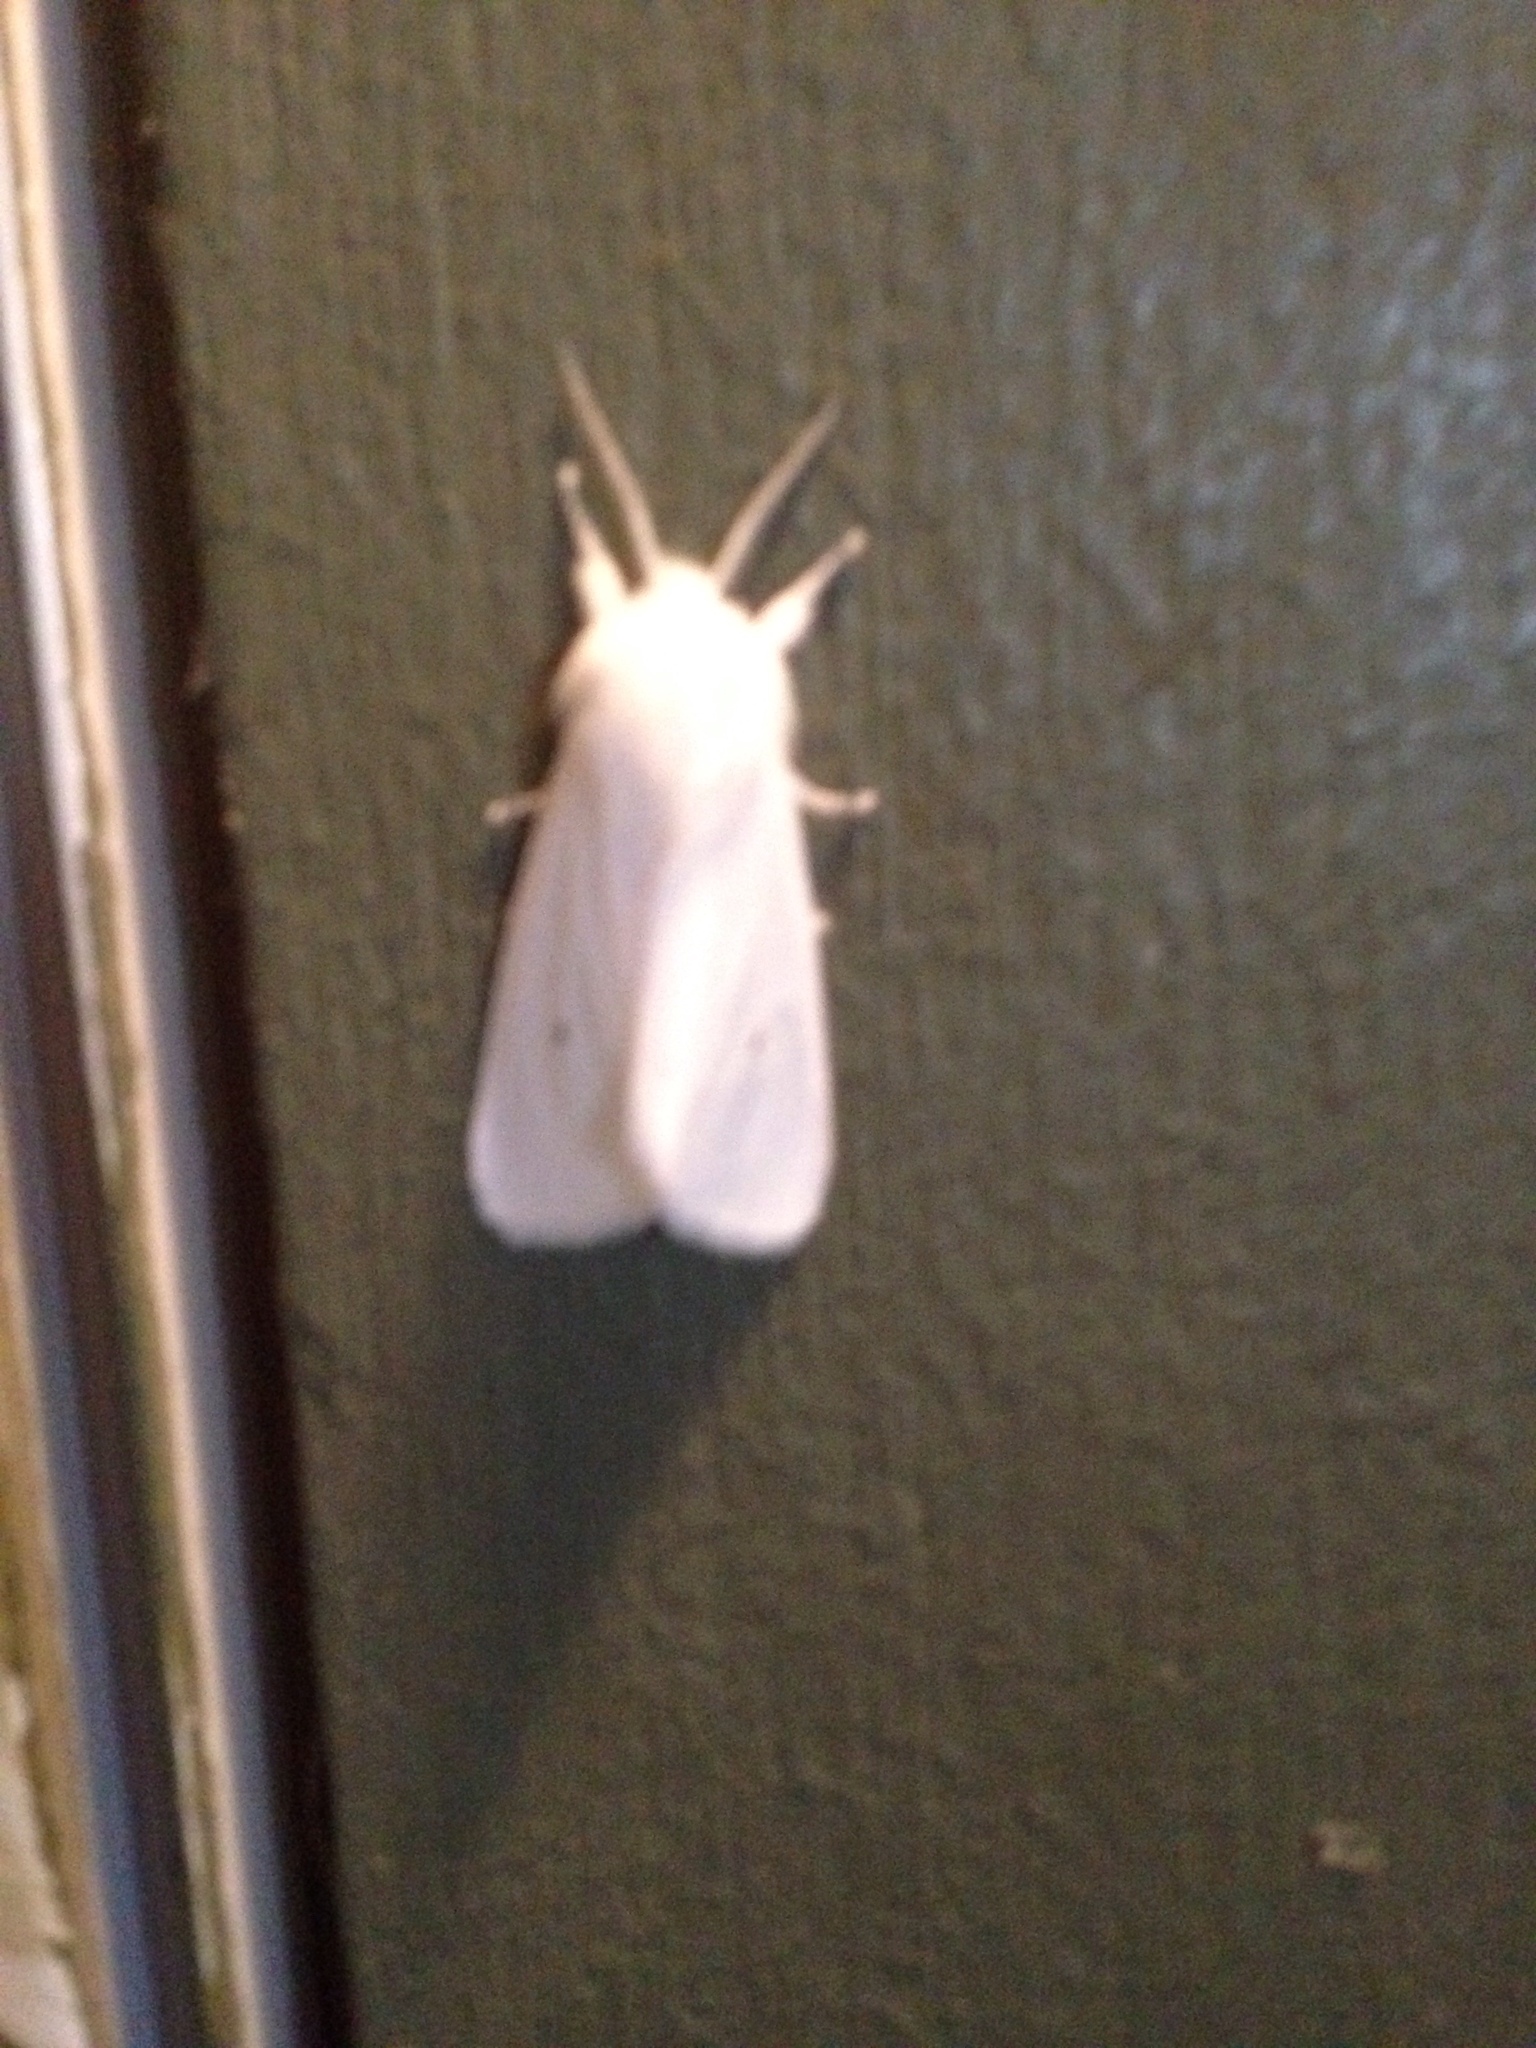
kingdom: Animalia
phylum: Arthropoda
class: Insecta
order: Lepidoptera
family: Erebidae
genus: Spilosoma
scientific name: Spilosoma virginica
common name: Virginia tiger moth
